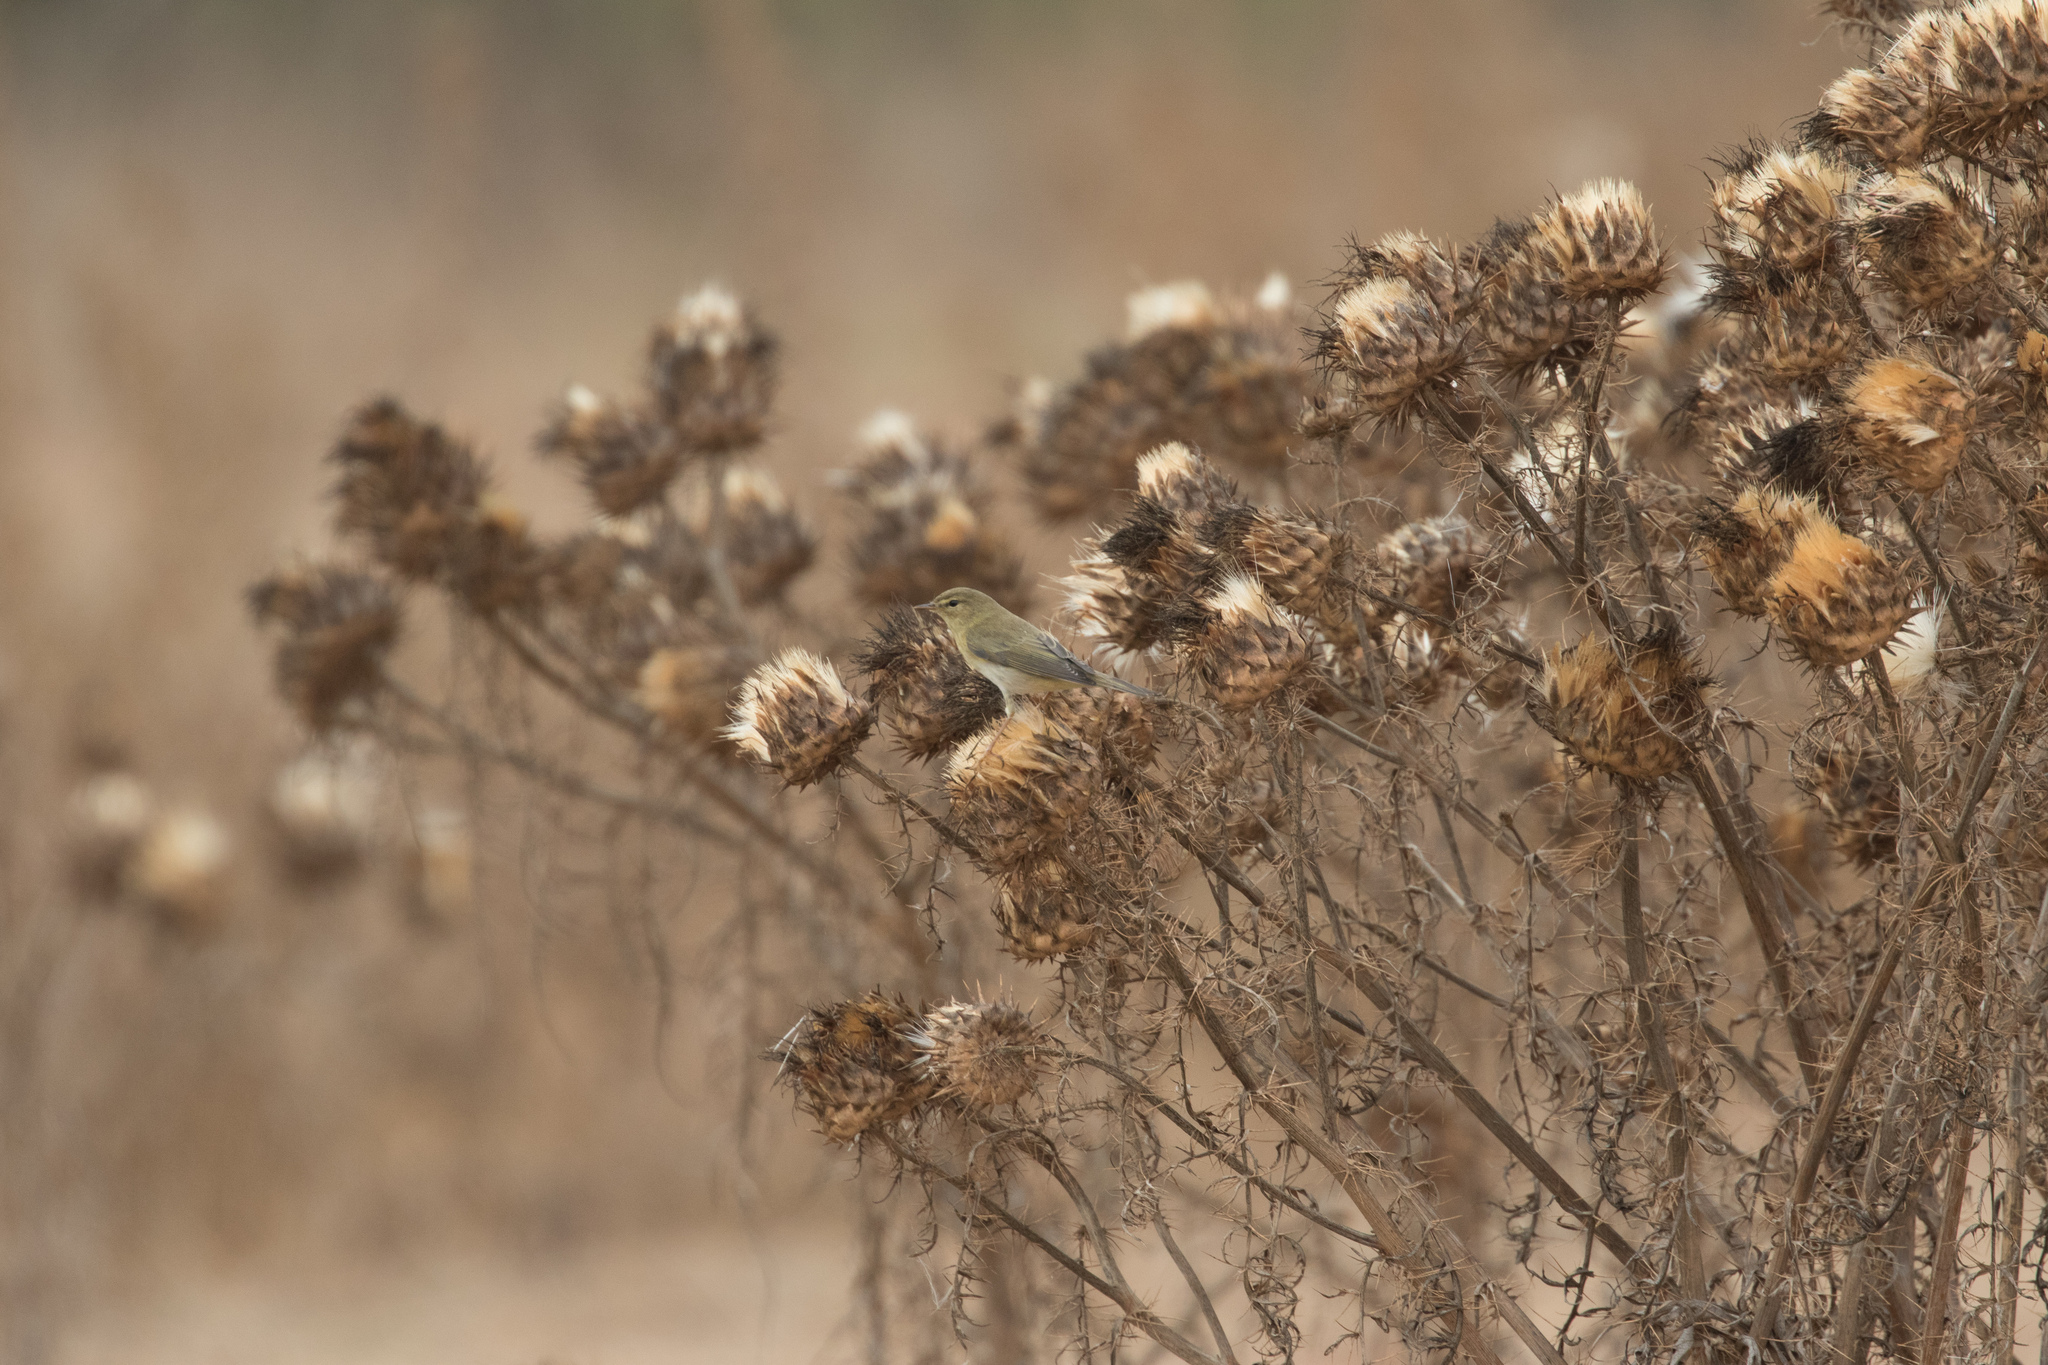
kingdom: Animalia
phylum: Chordata
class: Aves
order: Passeriformes
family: Phylloscopidae
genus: Phylloscopus
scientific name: Phylloscopus trochilus
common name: Willow warbler
